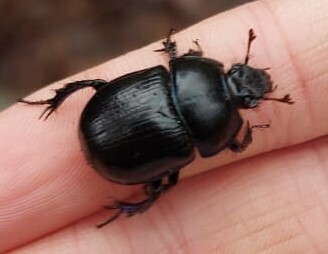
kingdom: Animalia
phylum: Arthropoda
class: Insecta
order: Coleoptera
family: Geotrupidae
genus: Anoplotrupes
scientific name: Anoplotrupes stercorosus
